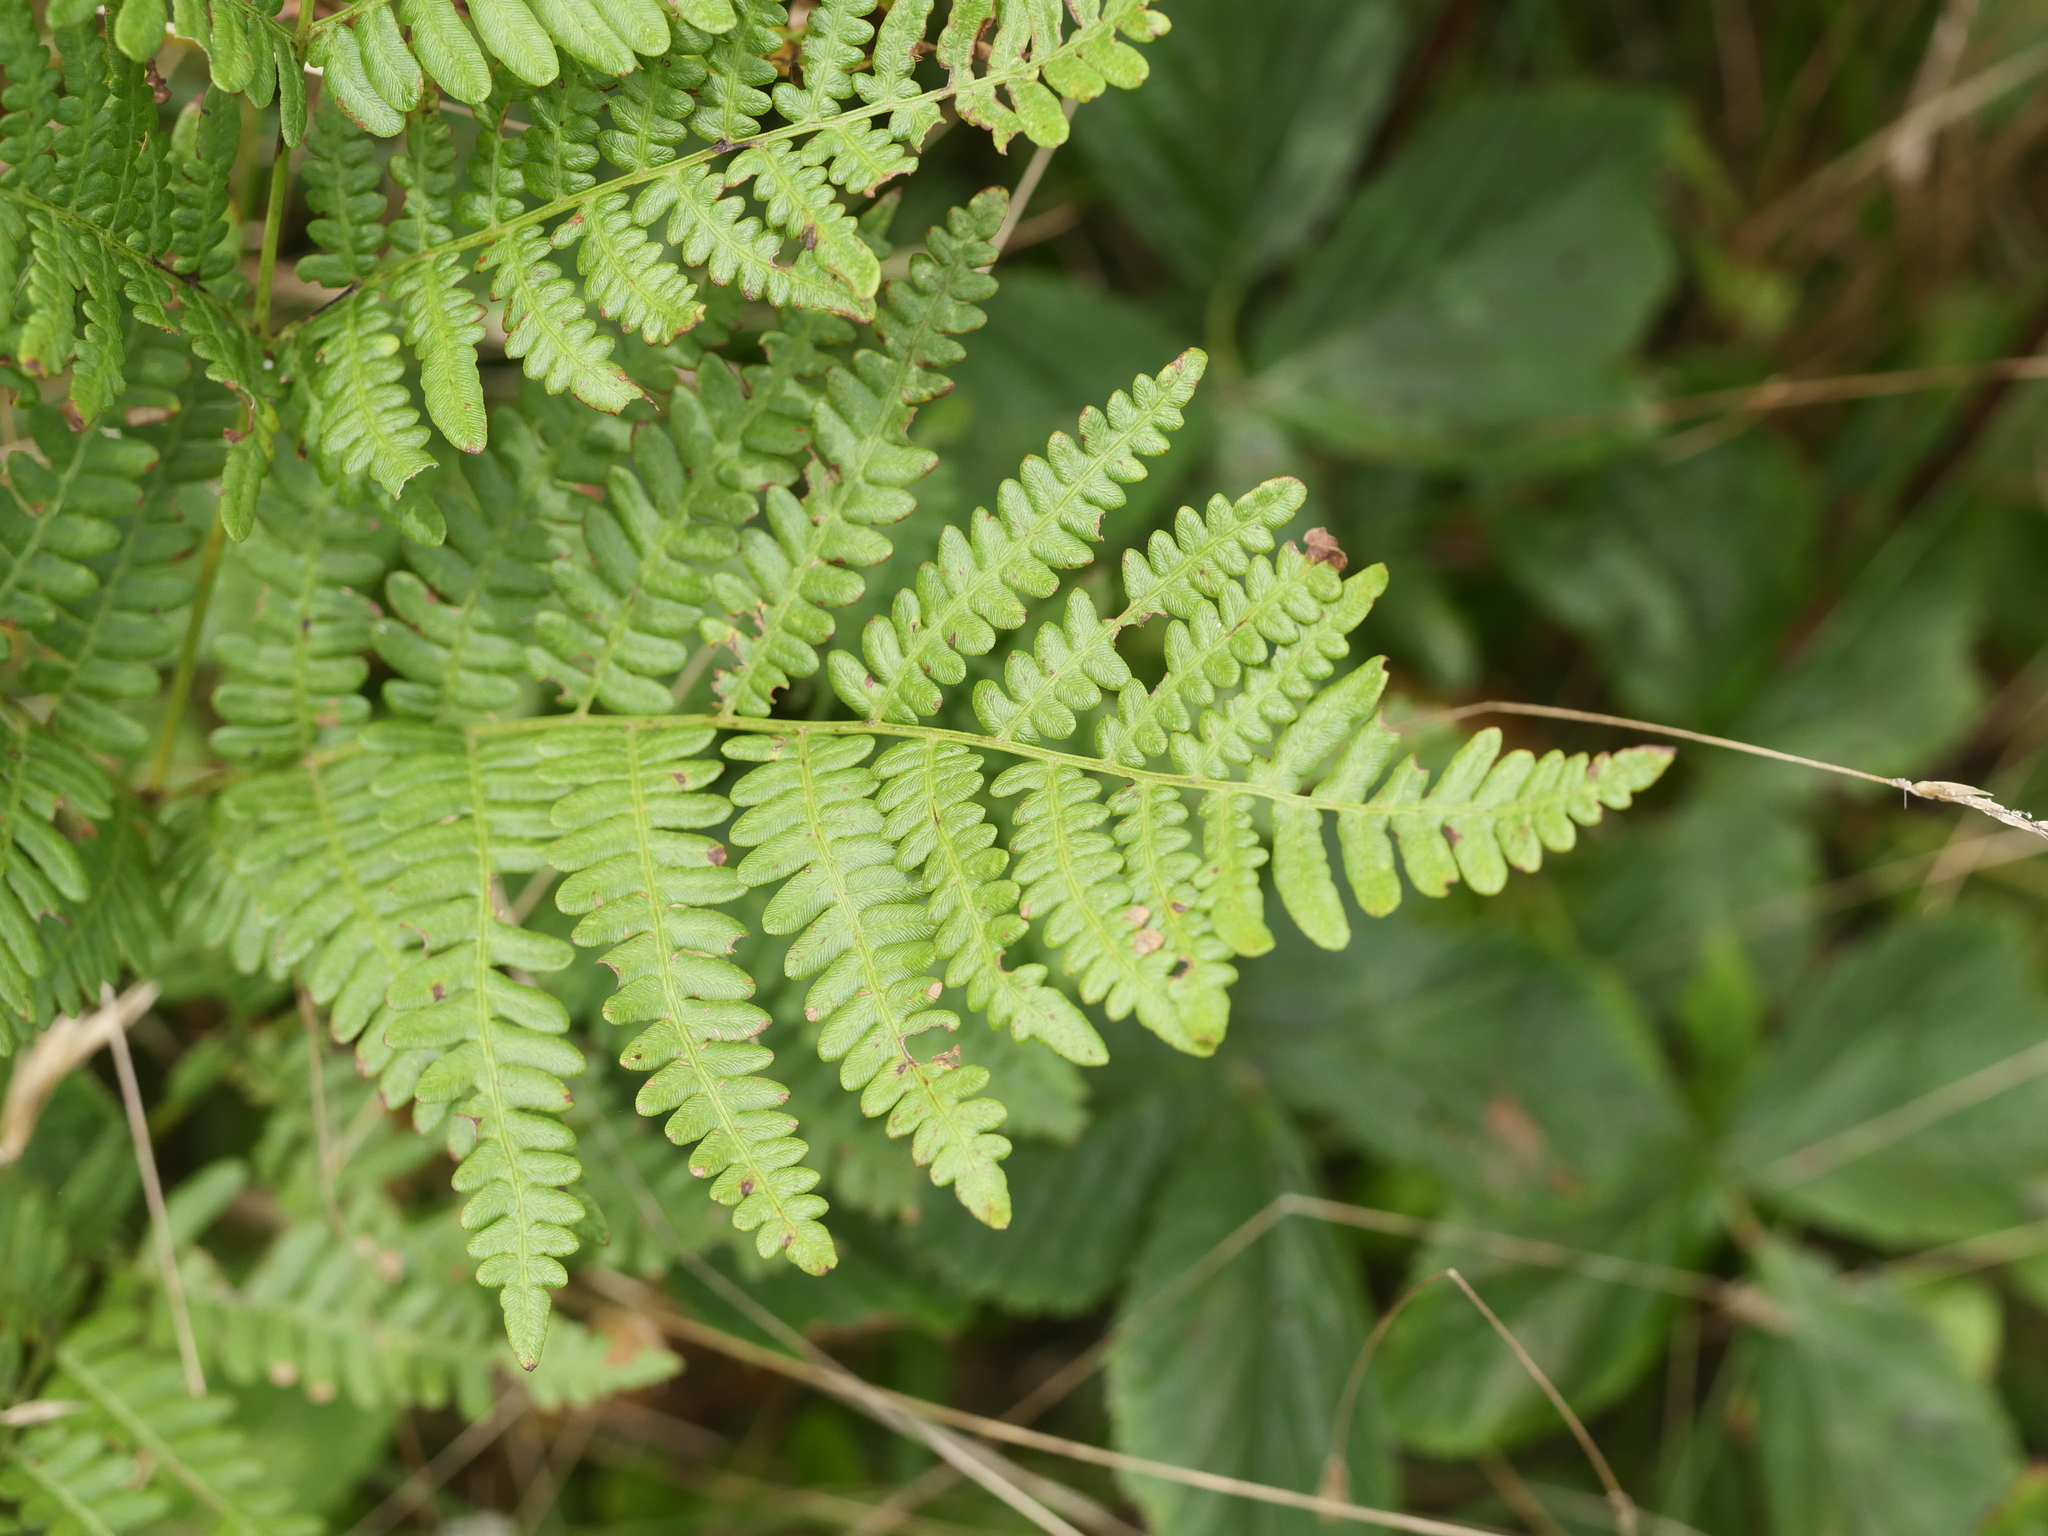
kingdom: Plantae
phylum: Tracheophyta
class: Polypodiopsida
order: Polypodiales
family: Dennstaedtiaceae
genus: Pteridium
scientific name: Pteridium aquilinum
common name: Bracken
